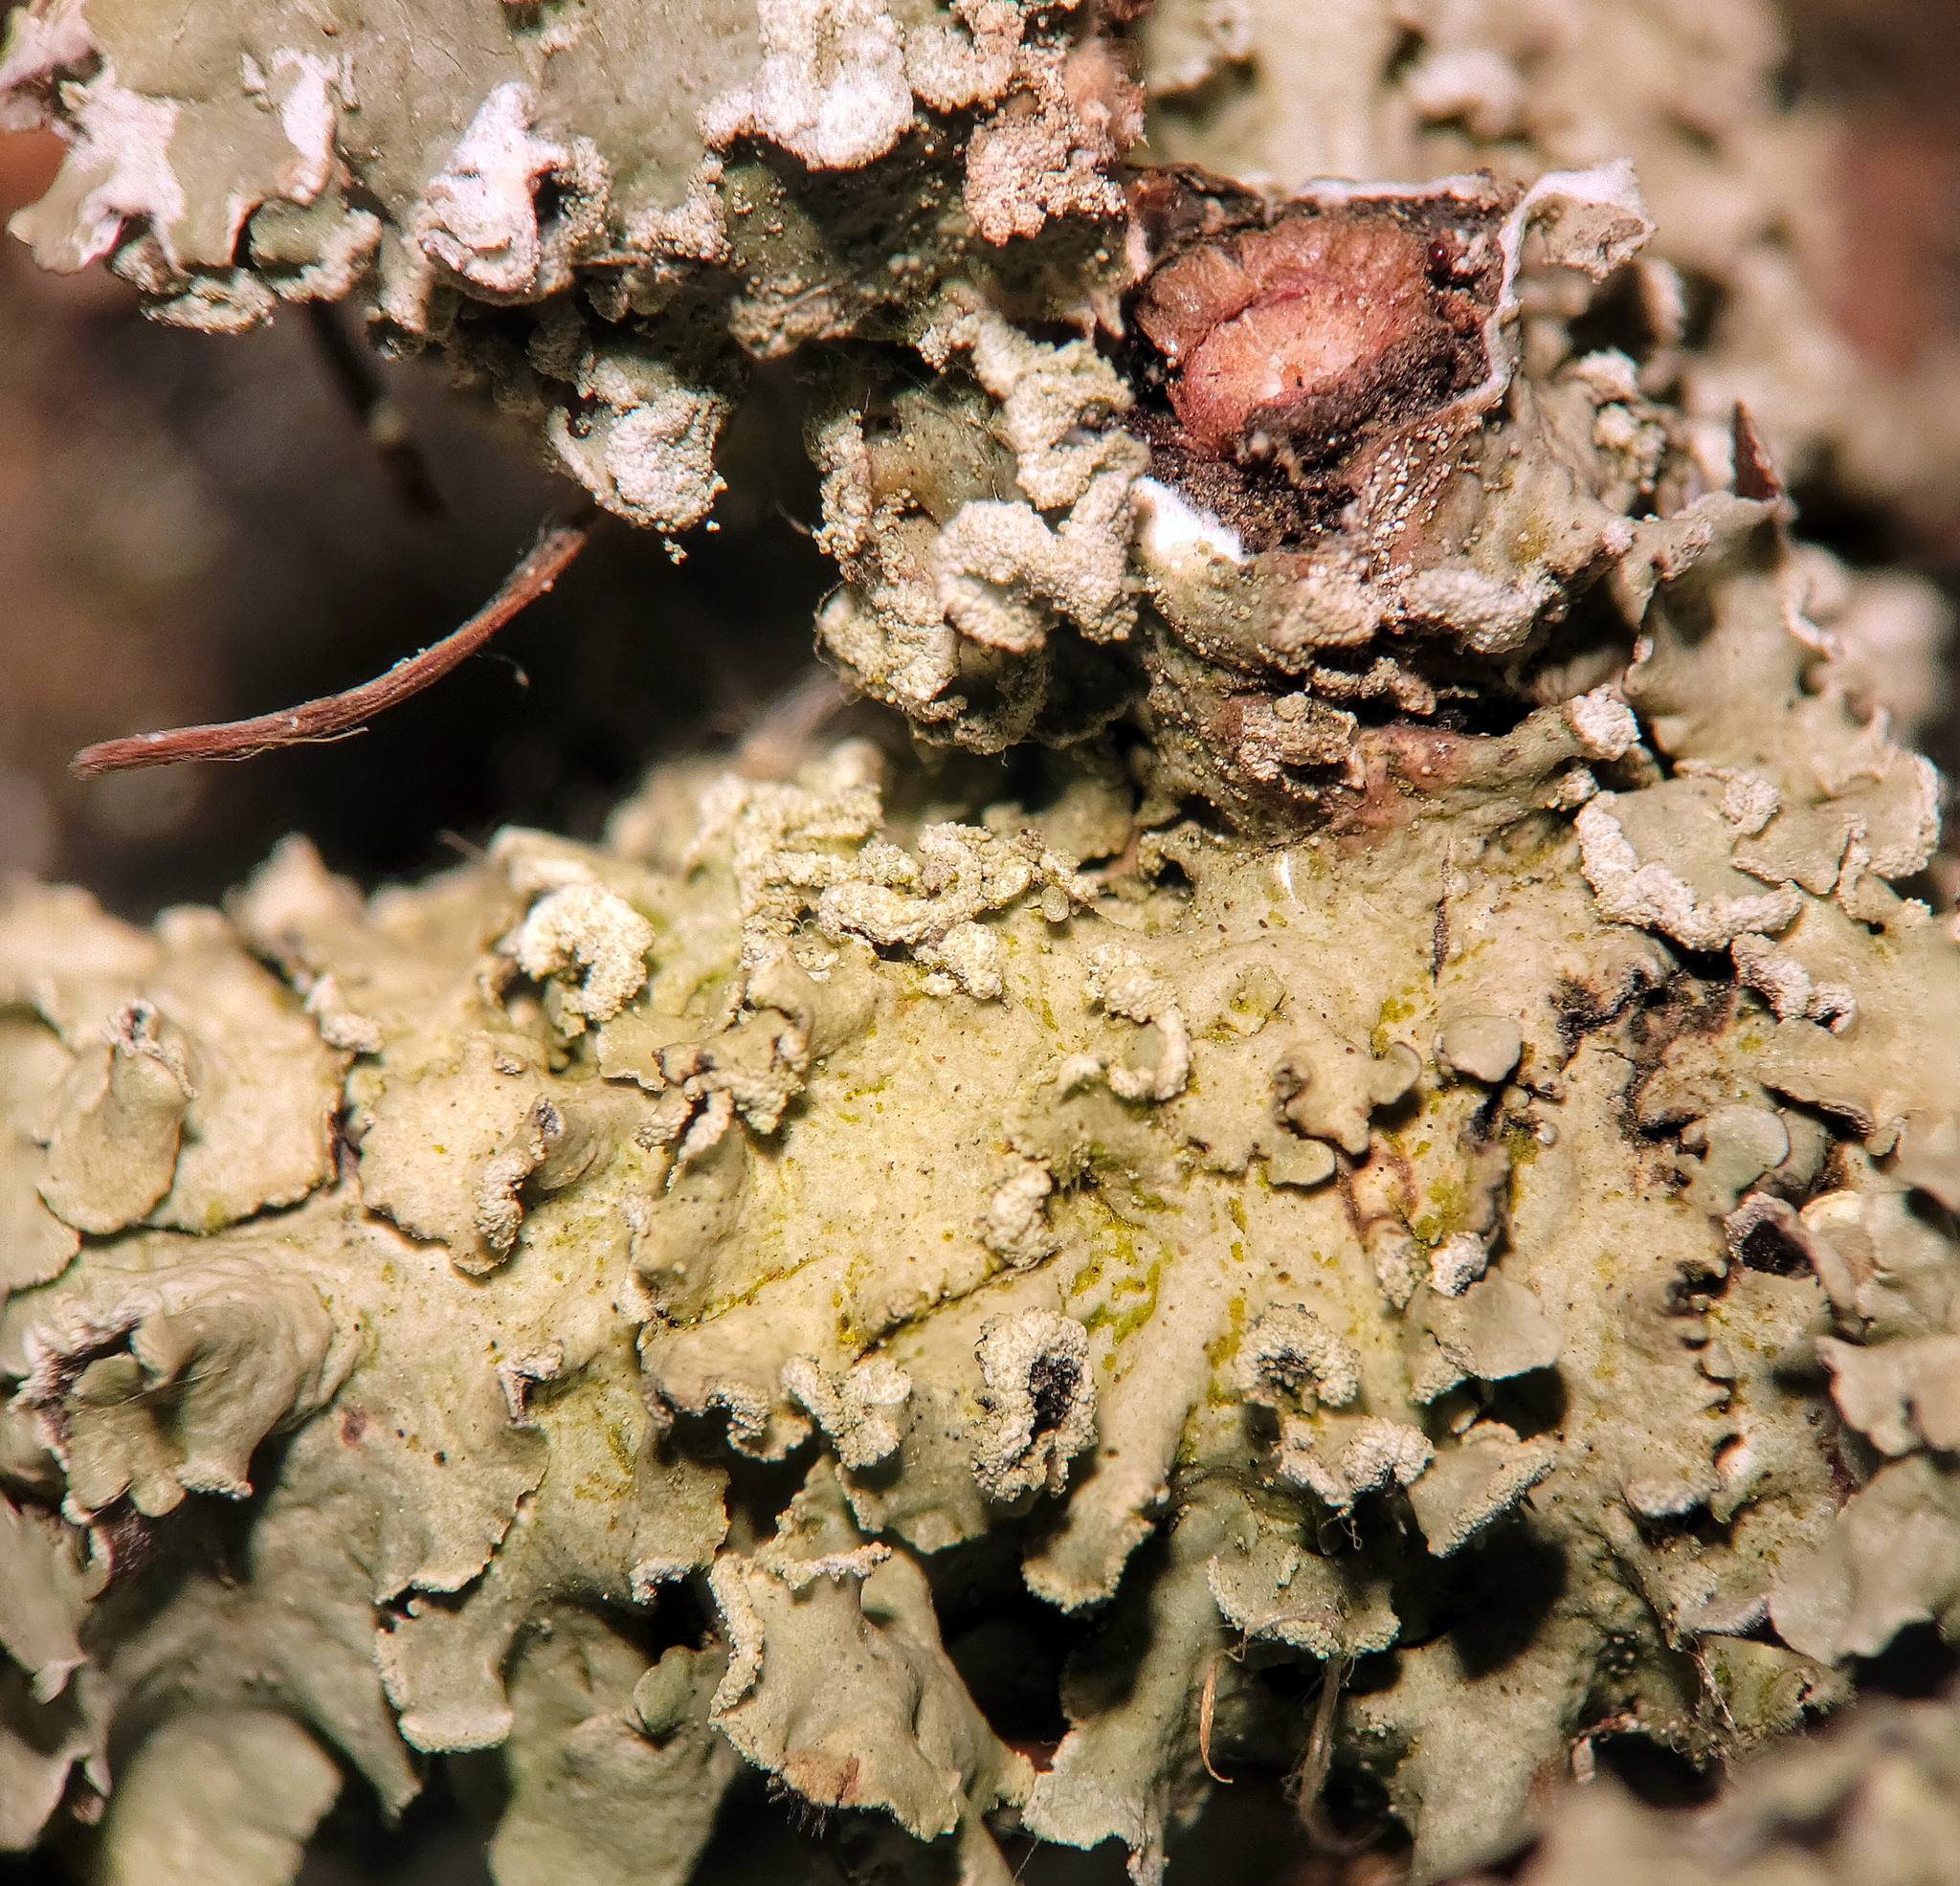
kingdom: Fungi
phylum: Ascomycota
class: Lecanoromycetes
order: Lecanorales
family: Parmeliaceae
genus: Flavopunctelia
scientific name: Flavopunctelia soredica
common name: Powder-edged speckled greenshield
